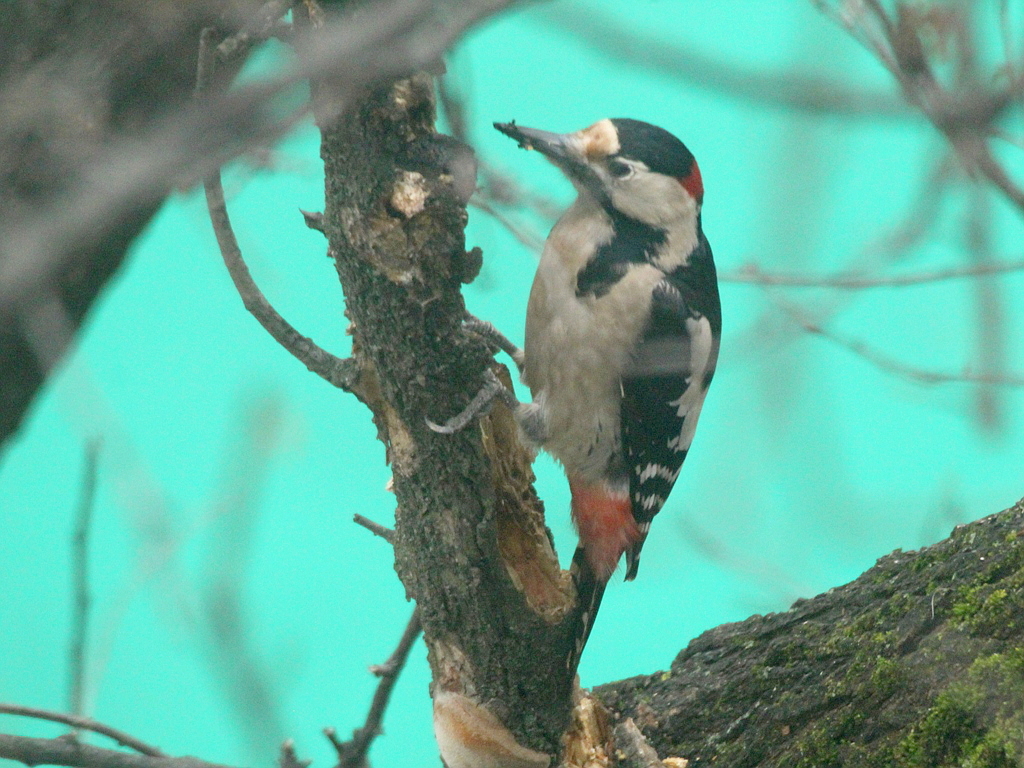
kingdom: Animalia
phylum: Chordata
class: Aves
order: Piciformes
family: Picidae
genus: Dendrocopos
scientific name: Dendrocopos syriacus
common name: Syrian woodpecker
